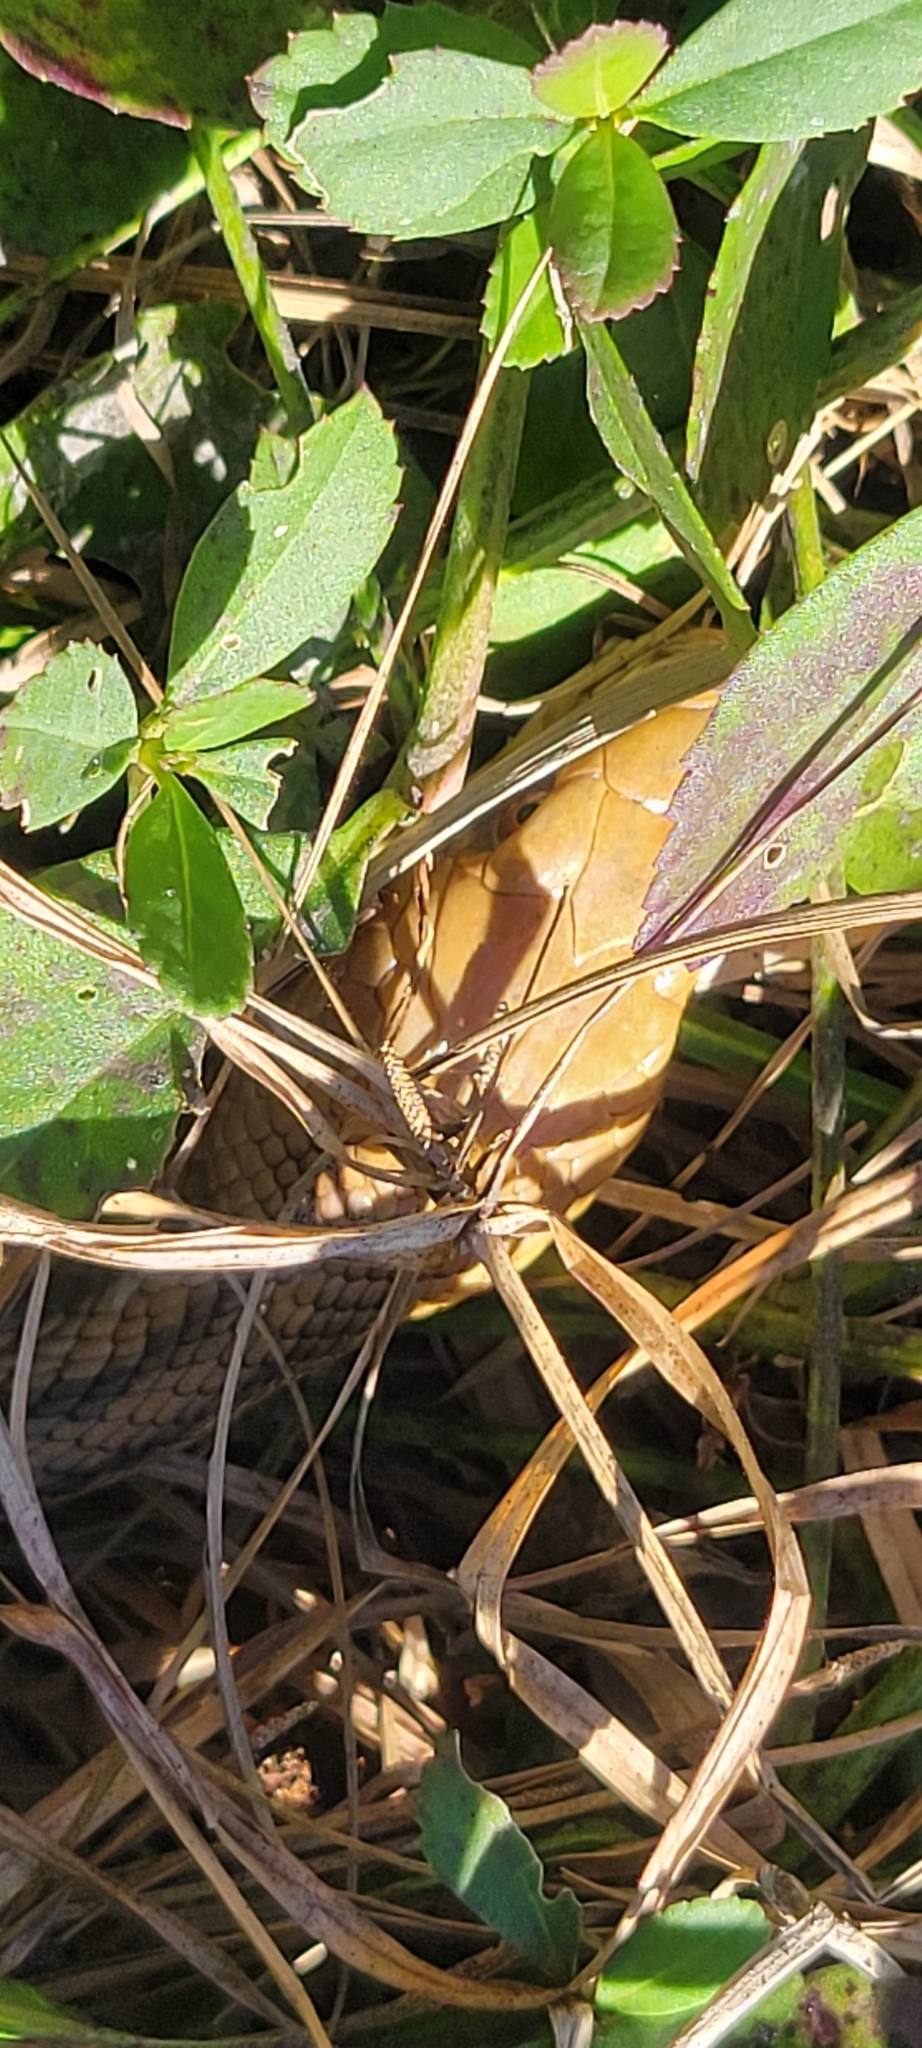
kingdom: Animalia
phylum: Chordata
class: Squamata
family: Colubridae
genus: Pantherophis
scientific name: Pantherophis alleghaniensis
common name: Eastern rat snake
